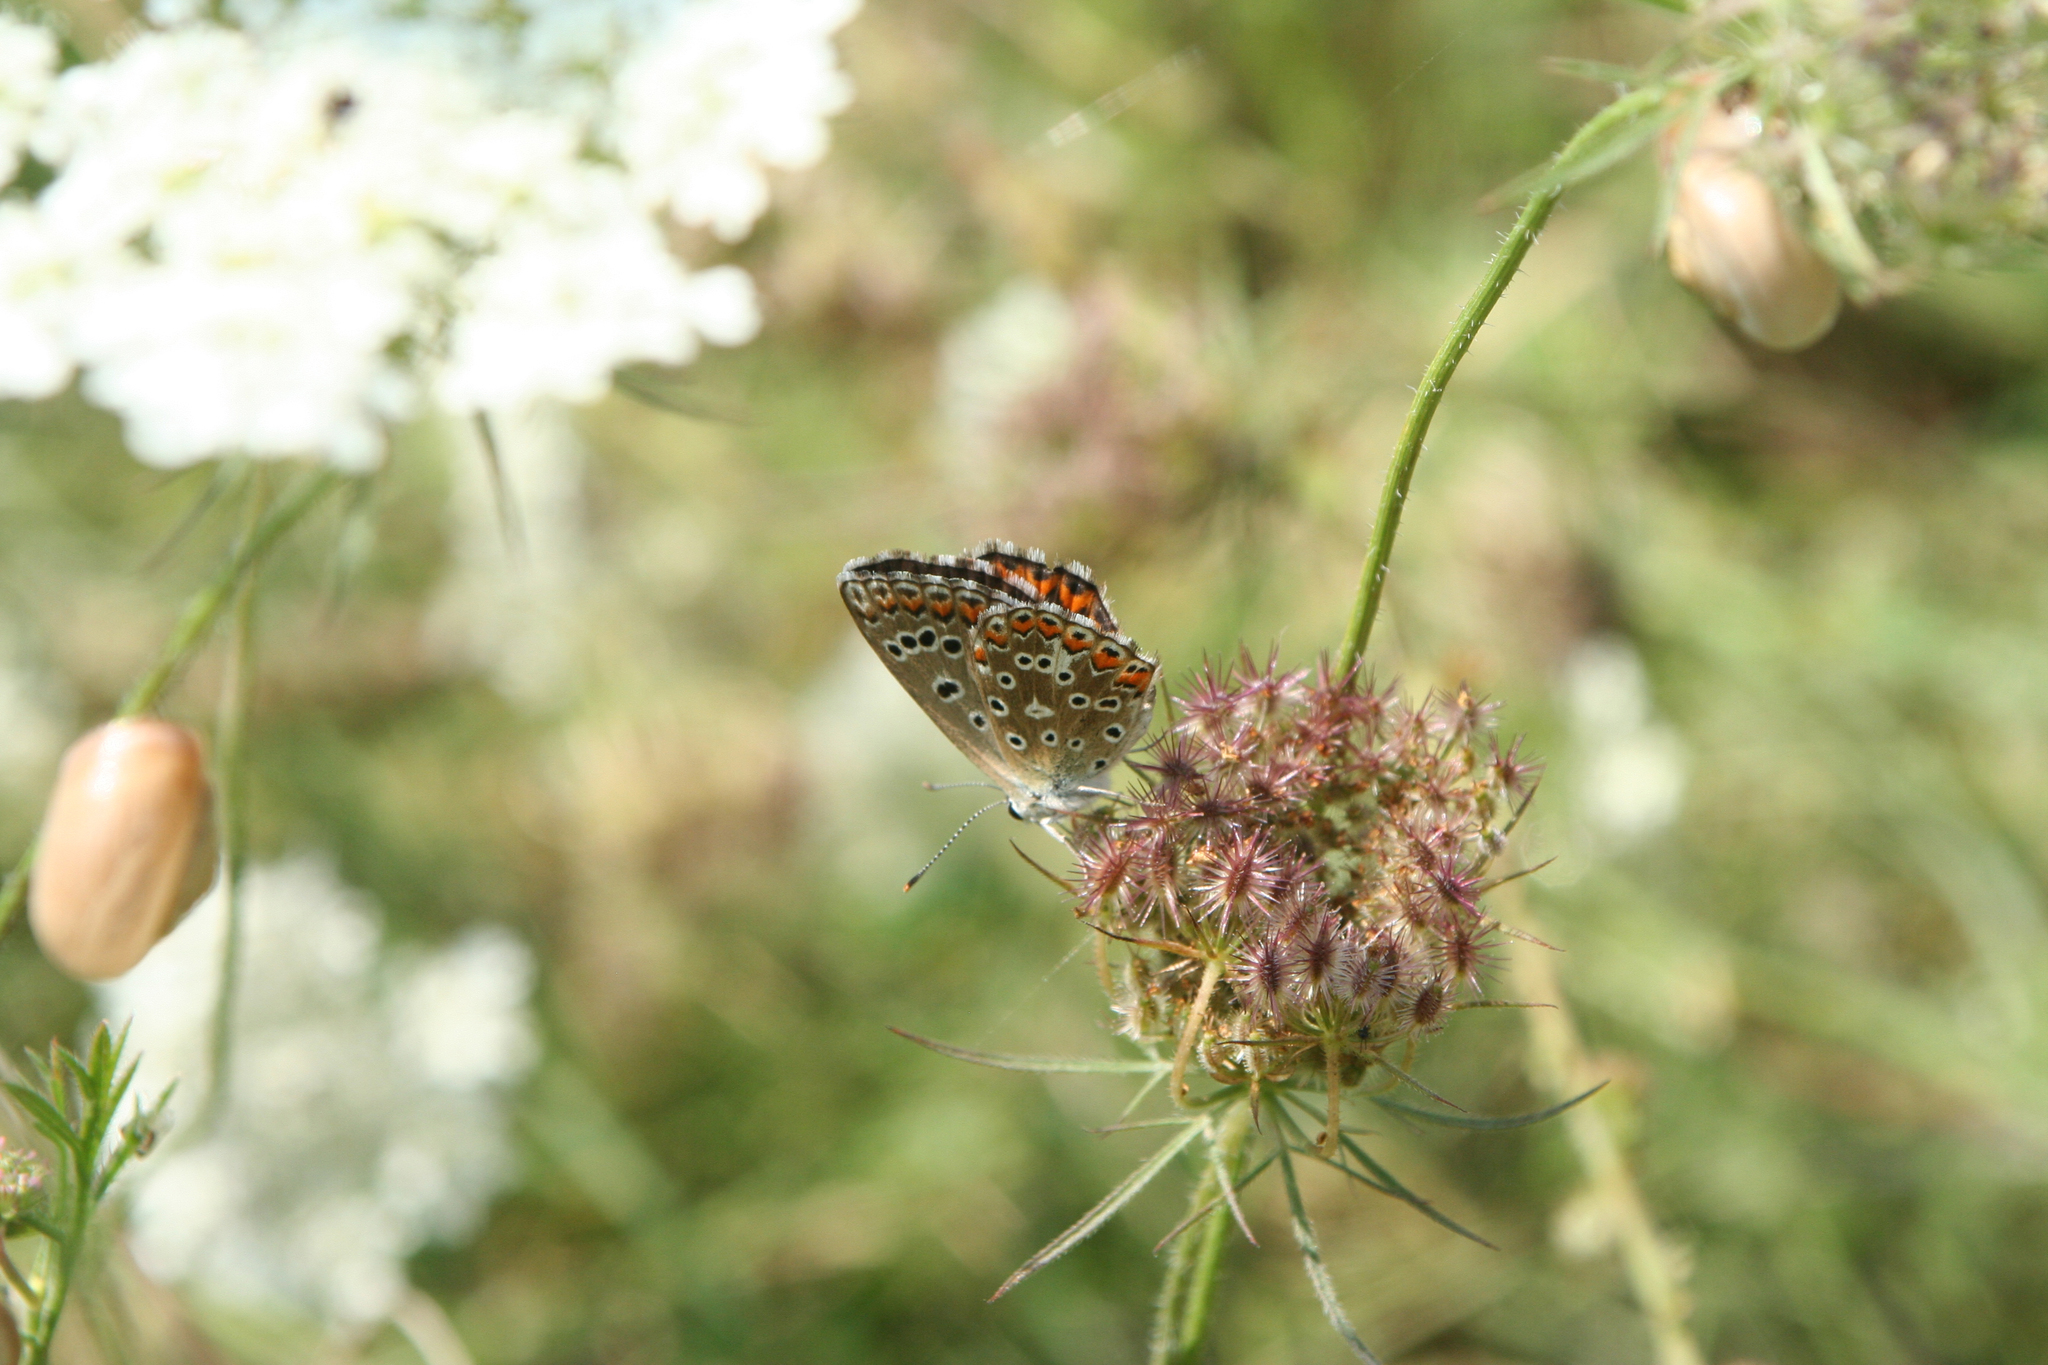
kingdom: Animalia
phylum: Arthropoda
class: Insecta
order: Lepidoptera
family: Lycaenidae
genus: Lysandra
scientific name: Lysandra bellargus
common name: Adonis blue
